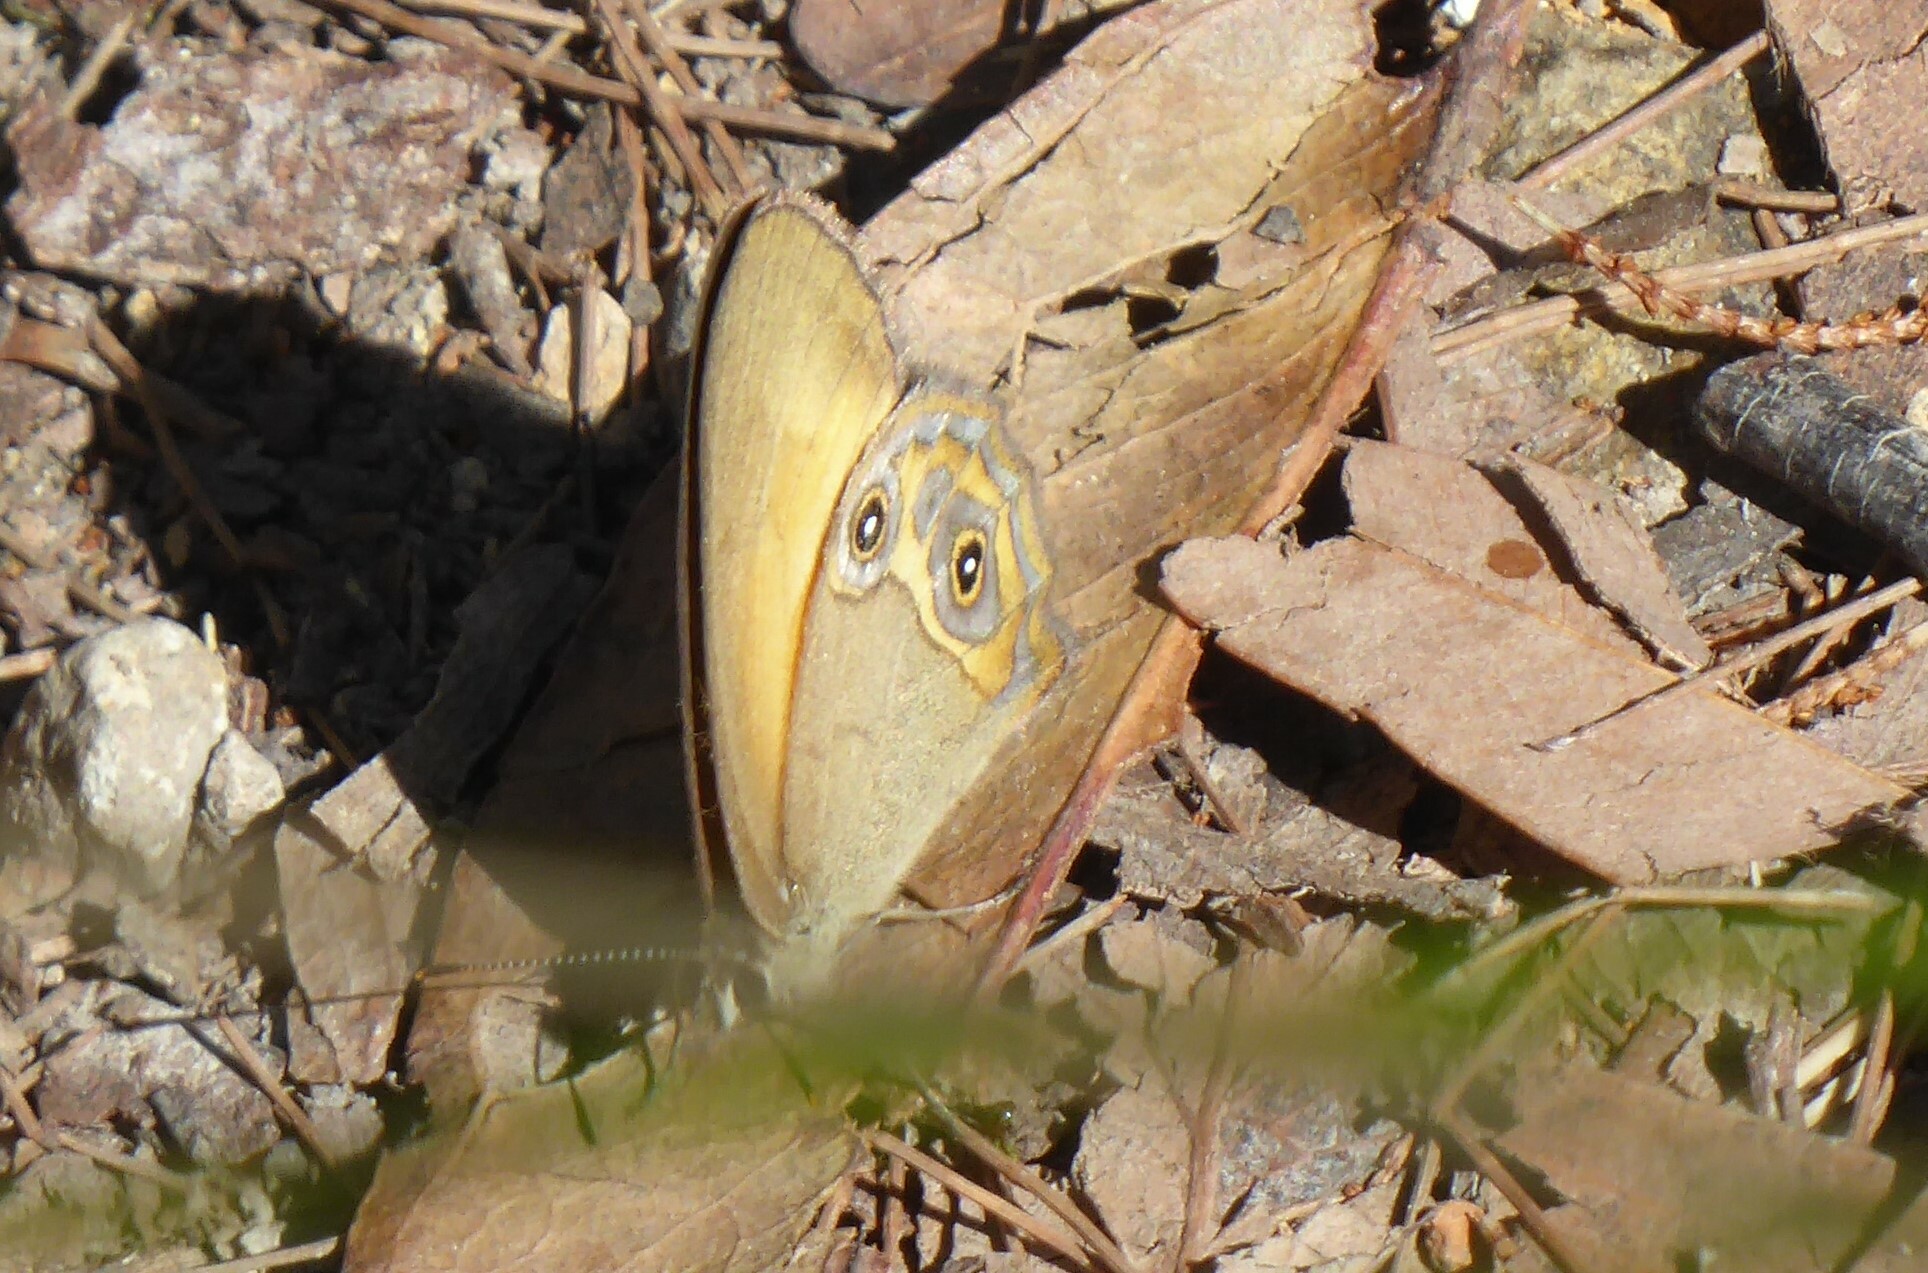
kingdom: Animalia
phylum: Arthropoda
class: Insecta
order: Lepidoptera
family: Nymphalidae
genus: Hypocysta
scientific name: Hypocysta adiante
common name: Orange ringlet
